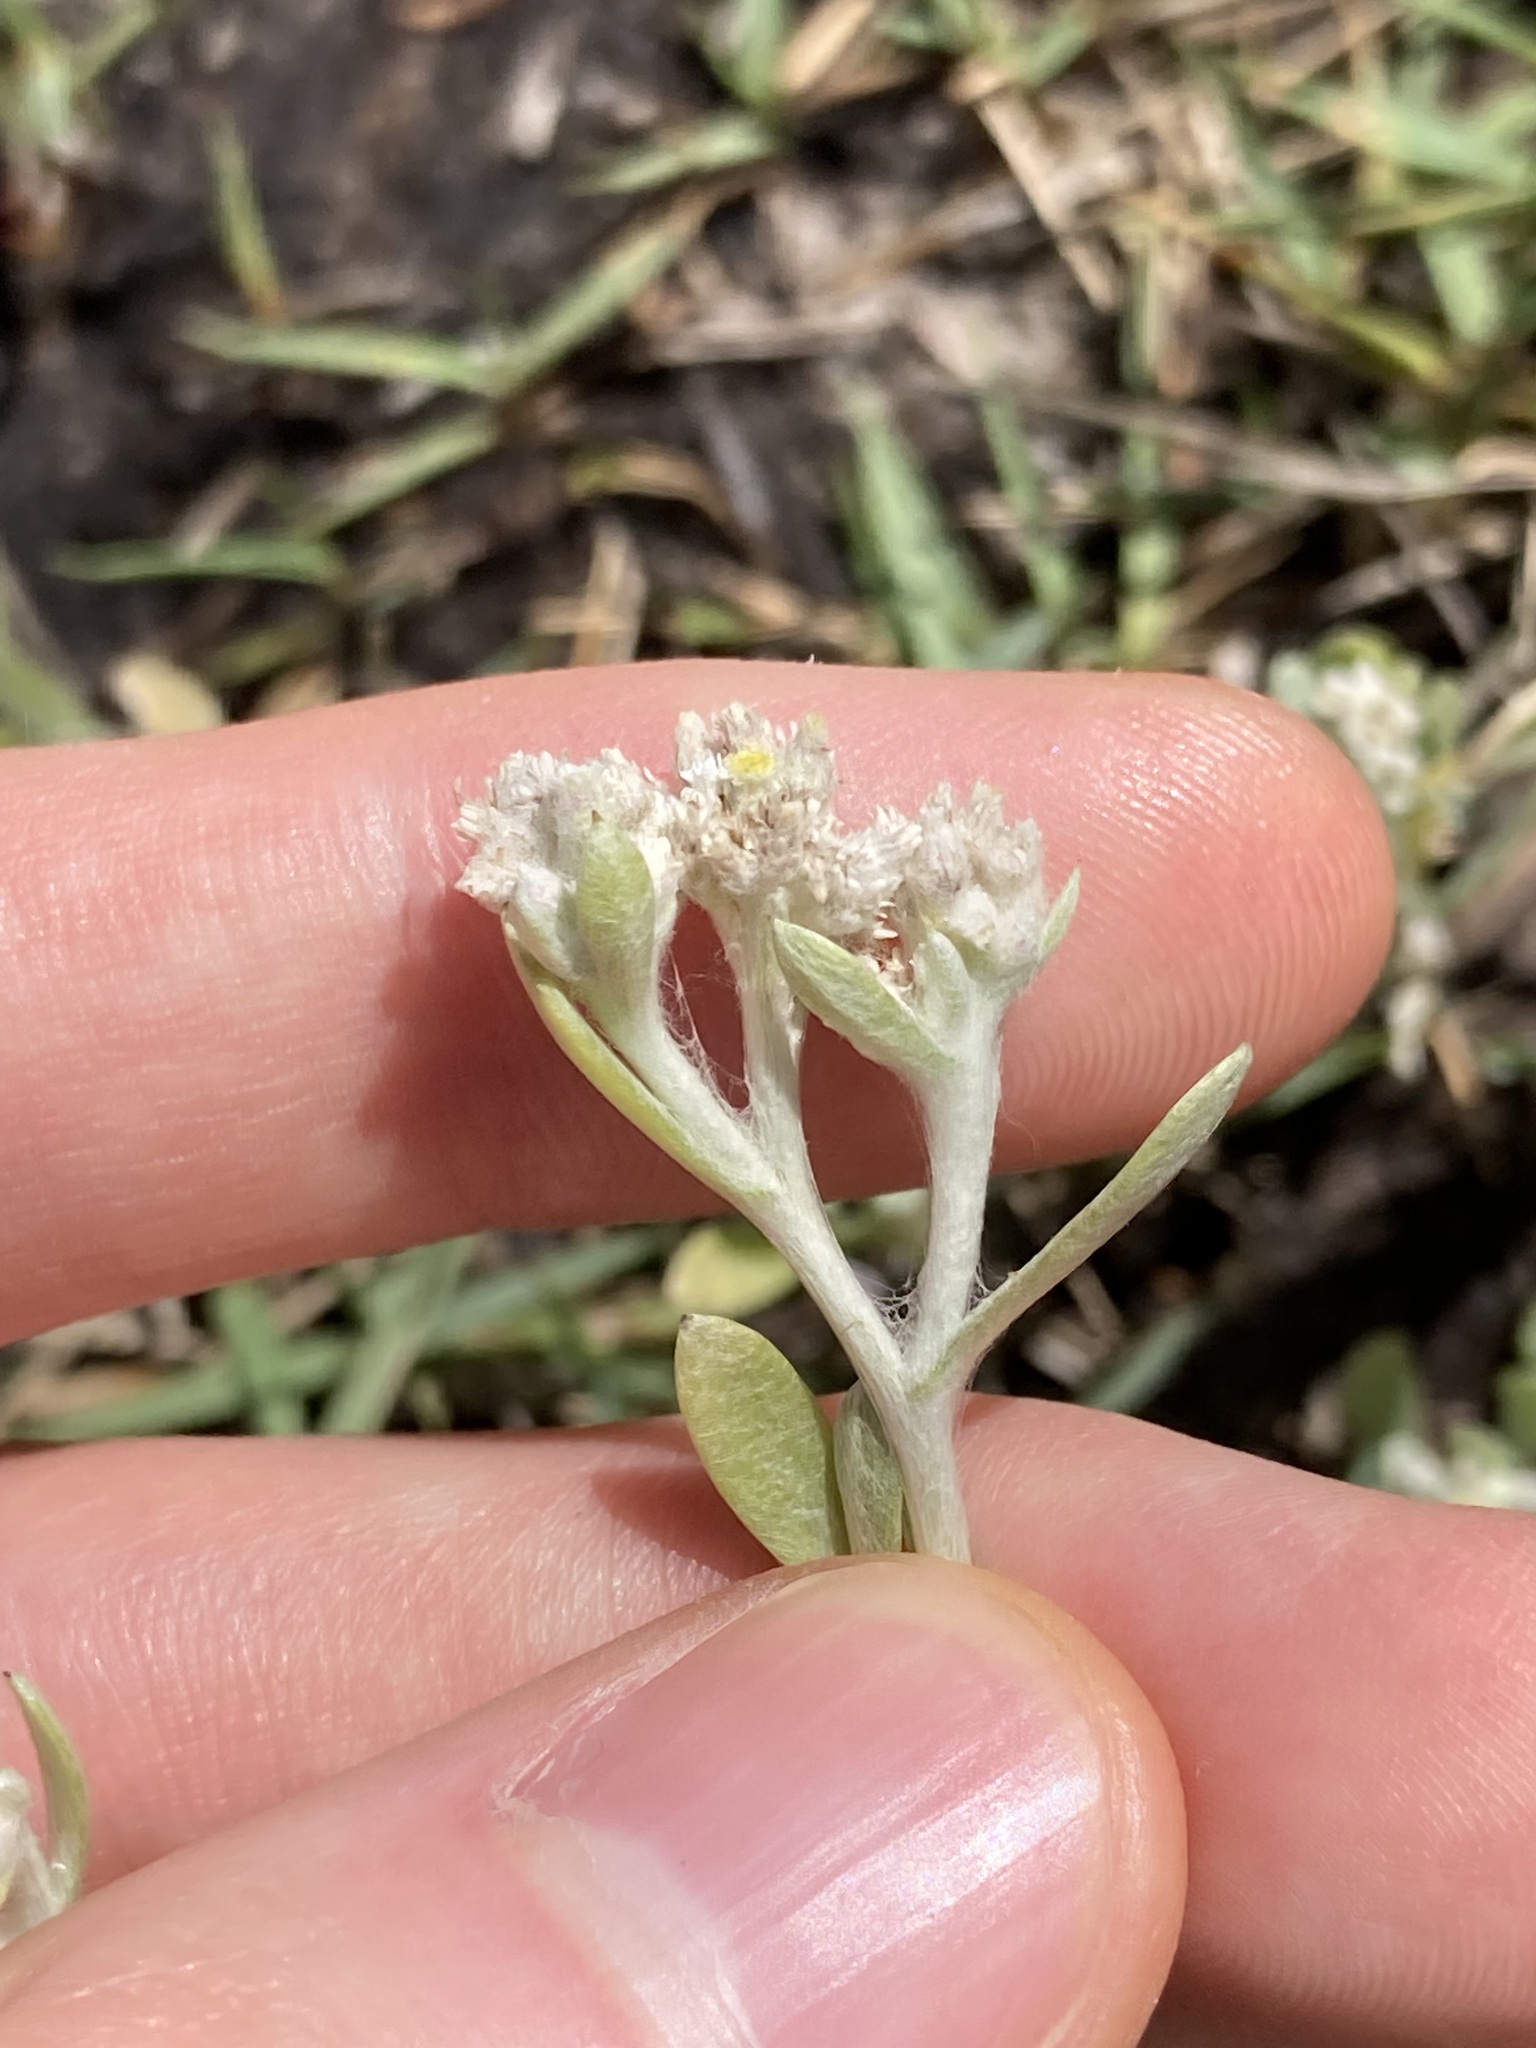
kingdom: Plantae
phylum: Tracheophyta
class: Magnoliopsida
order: Asterales
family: Asteraceae
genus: Vellereophyton
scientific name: Vellereophyton dealbatum
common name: White-cudweed
